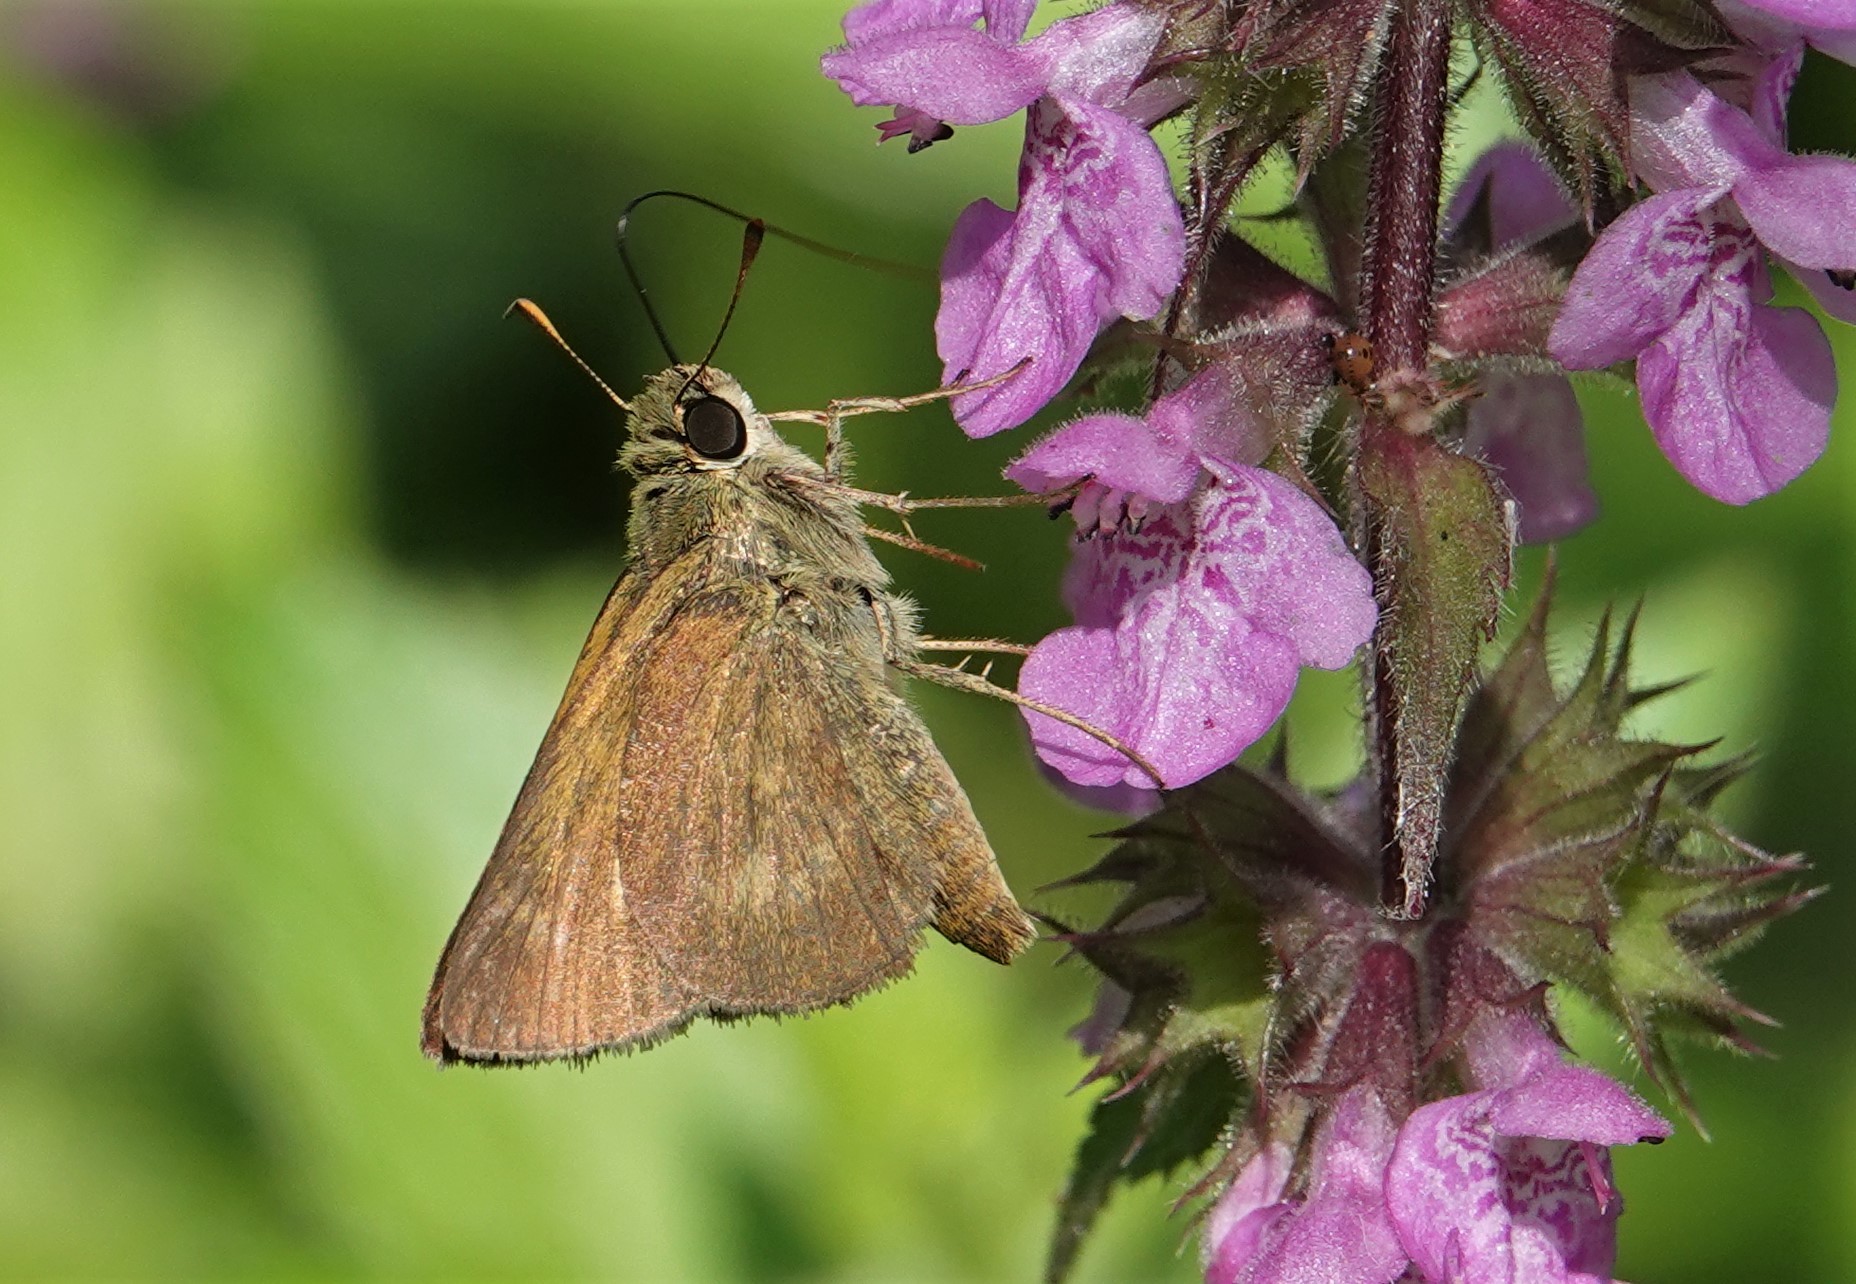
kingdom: Animalia
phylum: Arthropoda
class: Insecta
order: Lepidoptera
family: Hesperiidae
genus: Polites
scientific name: Polites egeremet
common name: Northern broken-dash
